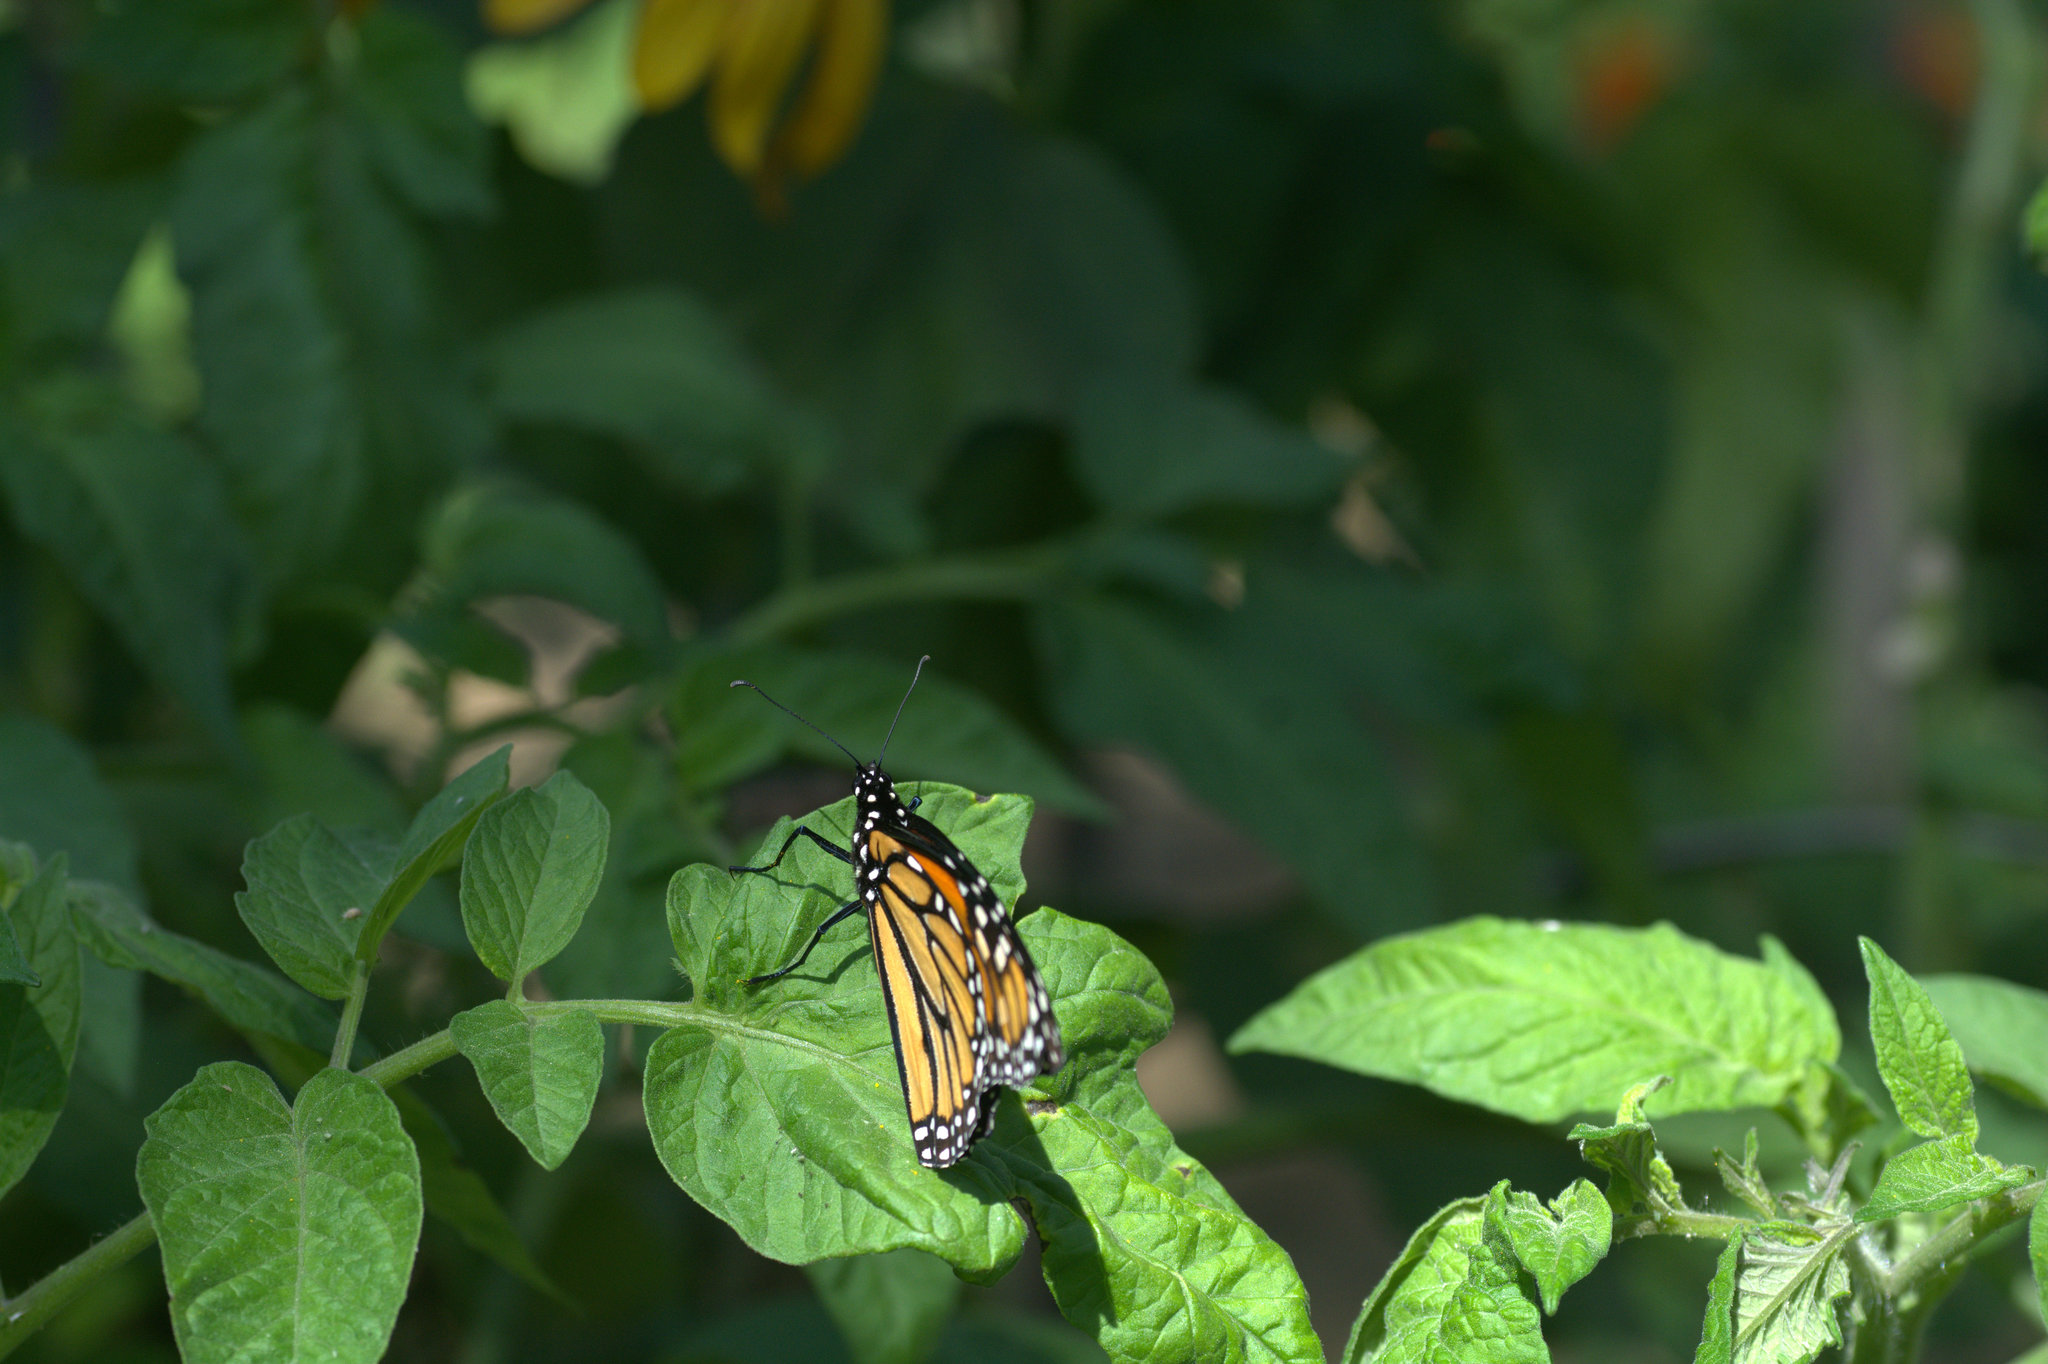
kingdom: Animalia
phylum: Arthropoda
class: Insecta
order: Lepidoptera
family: Nymphalidae
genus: Danaus
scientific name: Danaus plexippus
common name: Monarch
